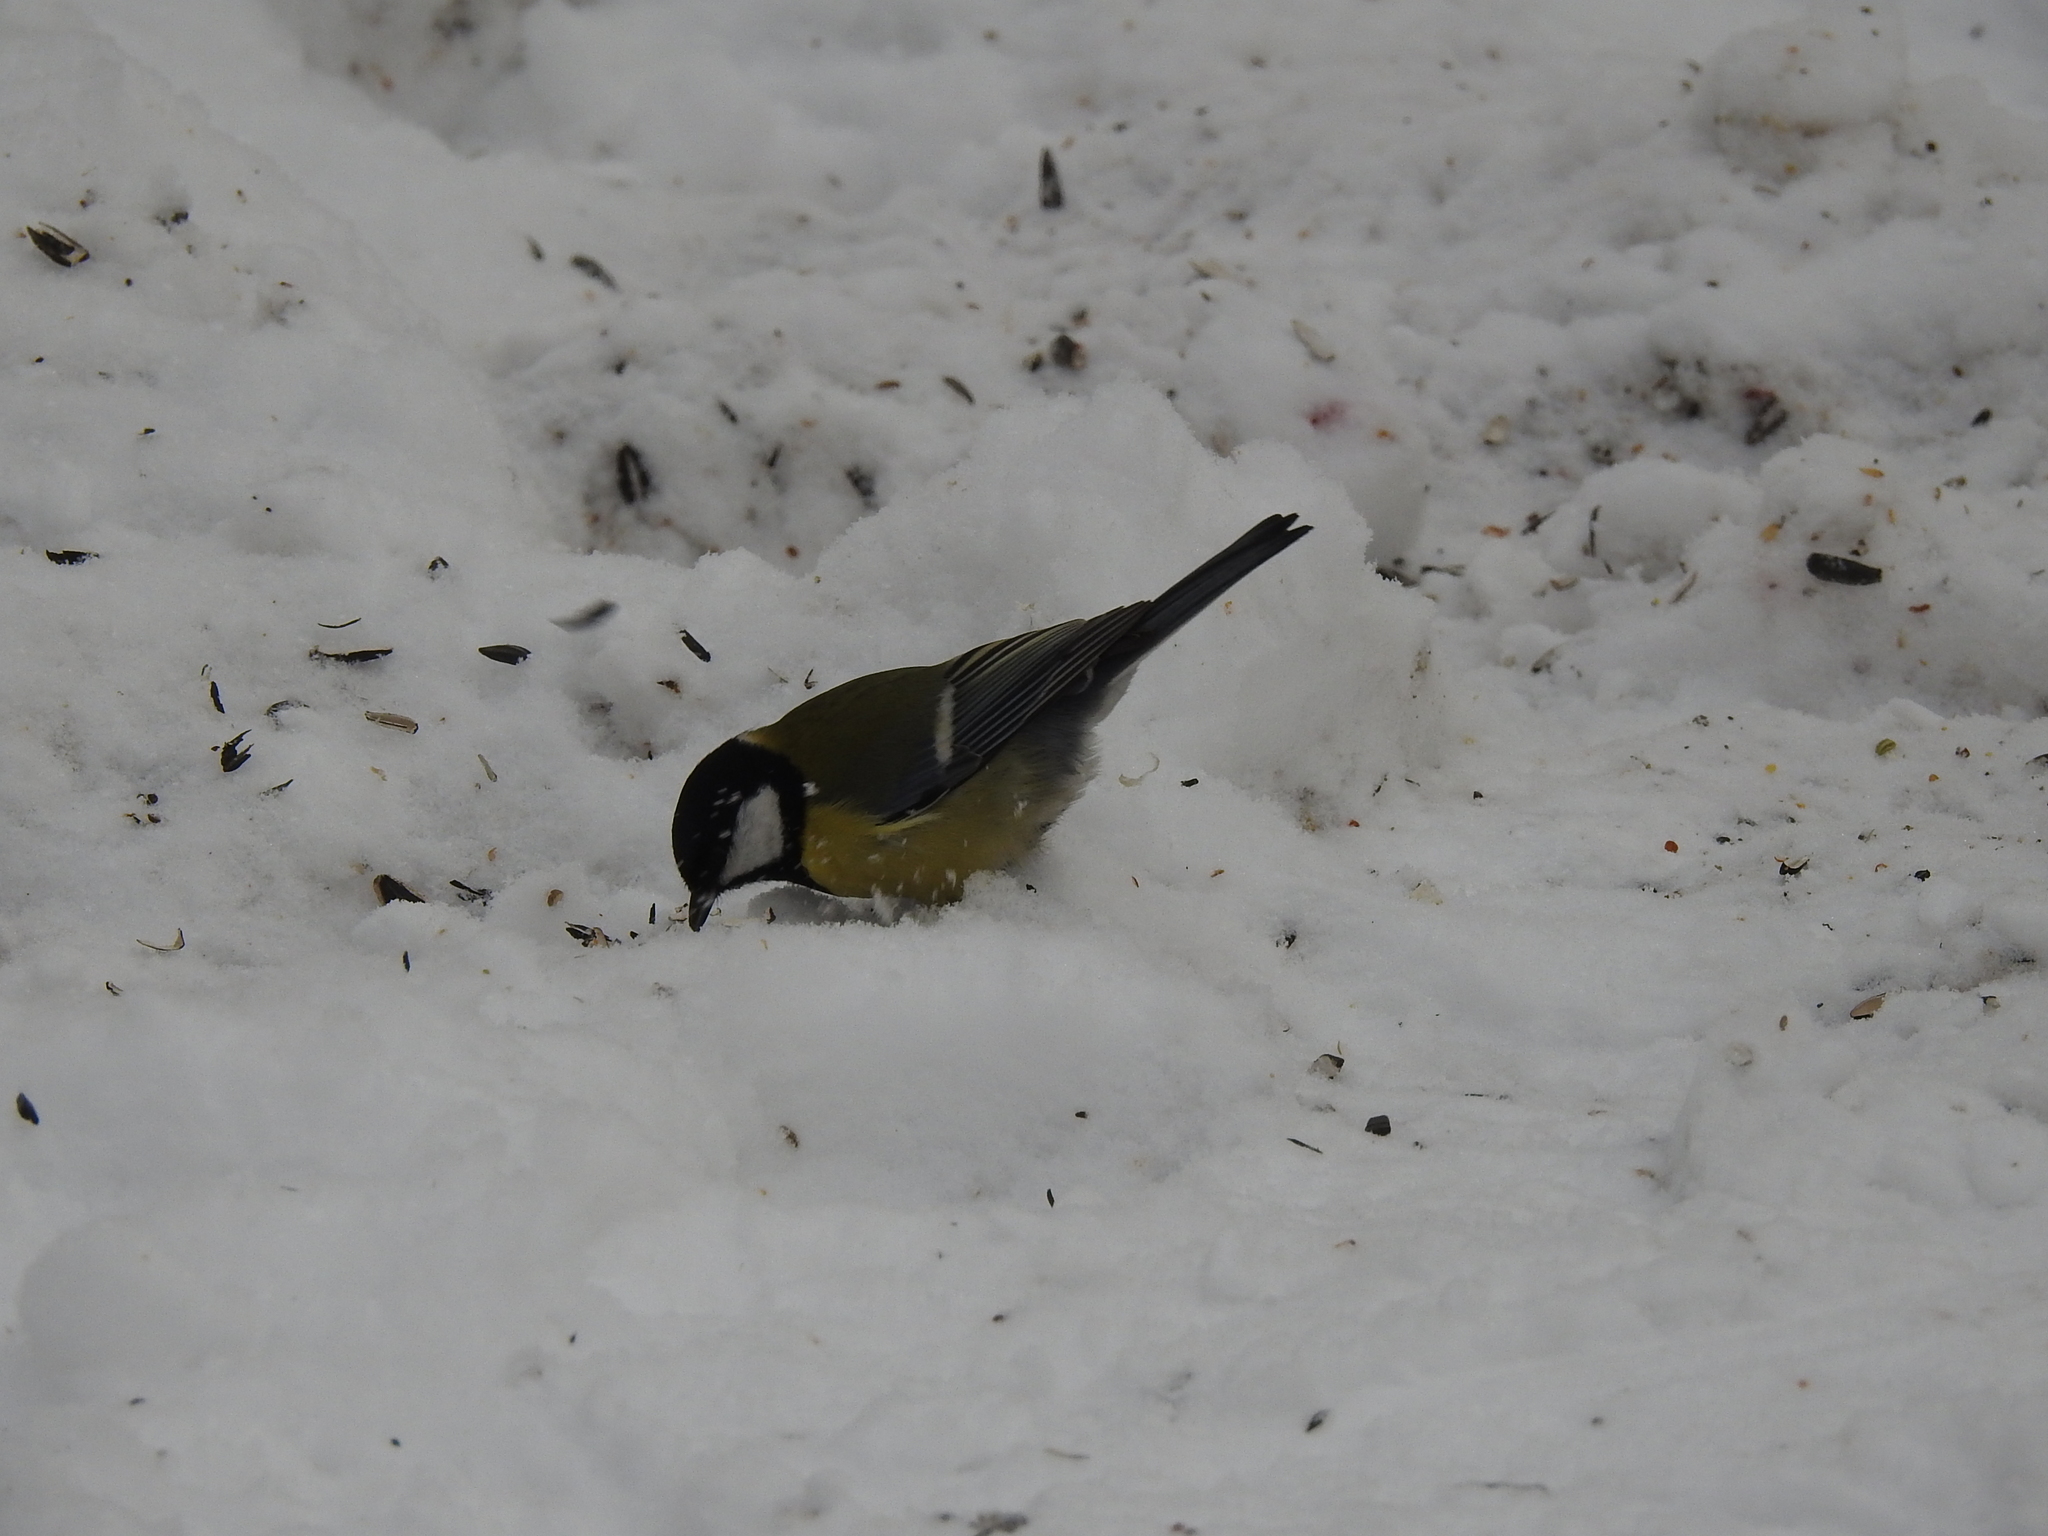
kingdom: Animalia
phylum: Chordata
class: Aves
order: Passeriformes
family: Paridae
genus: Parus
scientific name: Parus major
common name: Great tit
